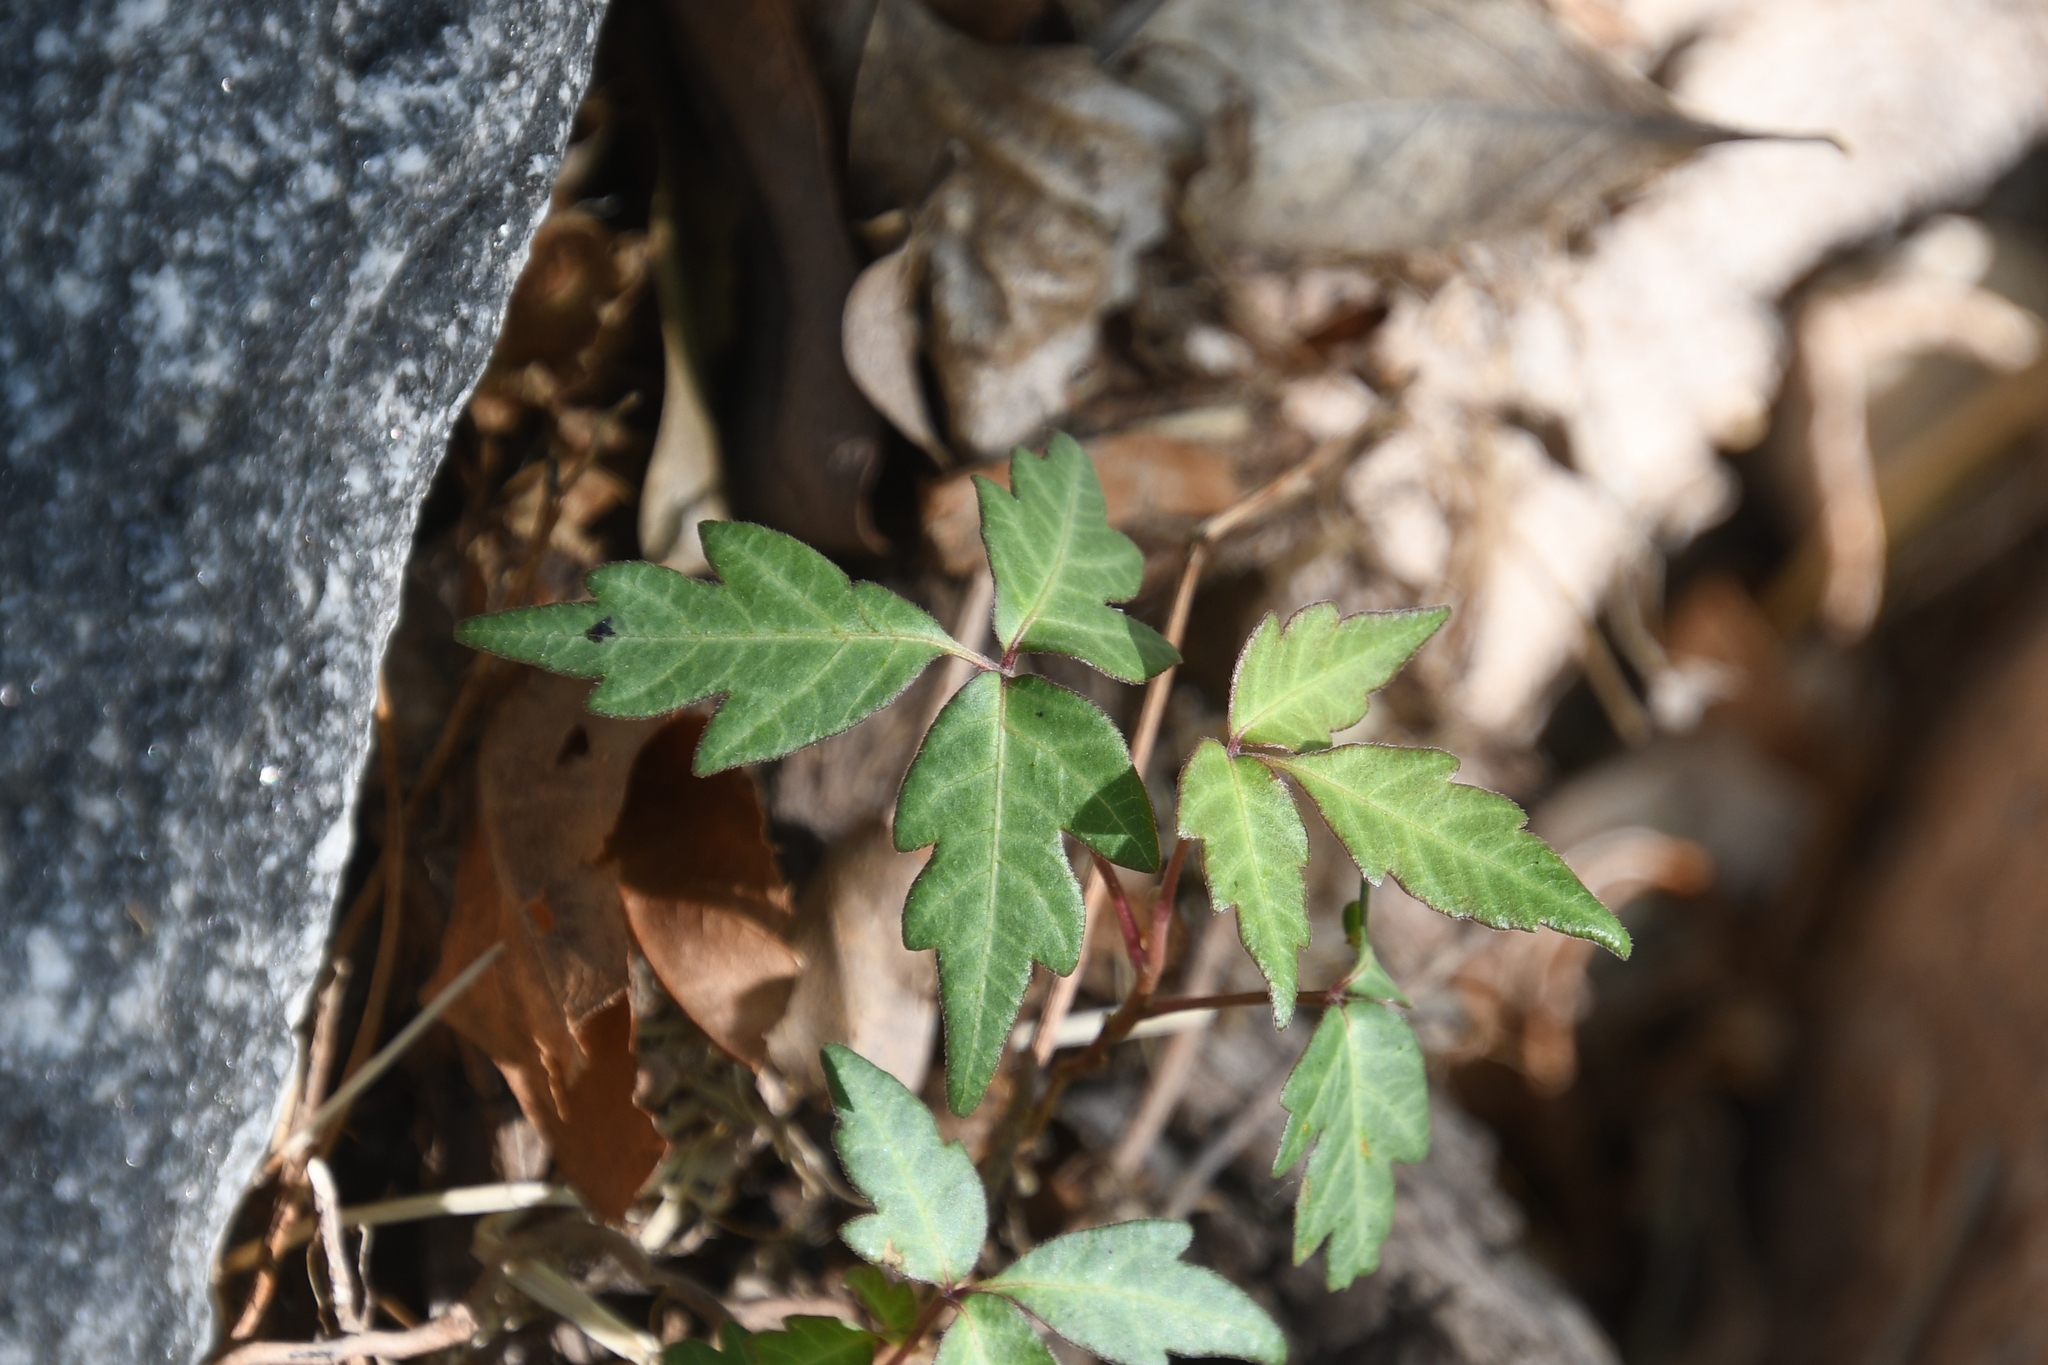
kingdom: Plantae
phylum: Tracheophyta
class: Magnoliopsida
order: Sapindales
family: Anacardiaceae
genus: Toxicodendron
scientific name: Toxicodendron radicans
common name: Poison ivy
